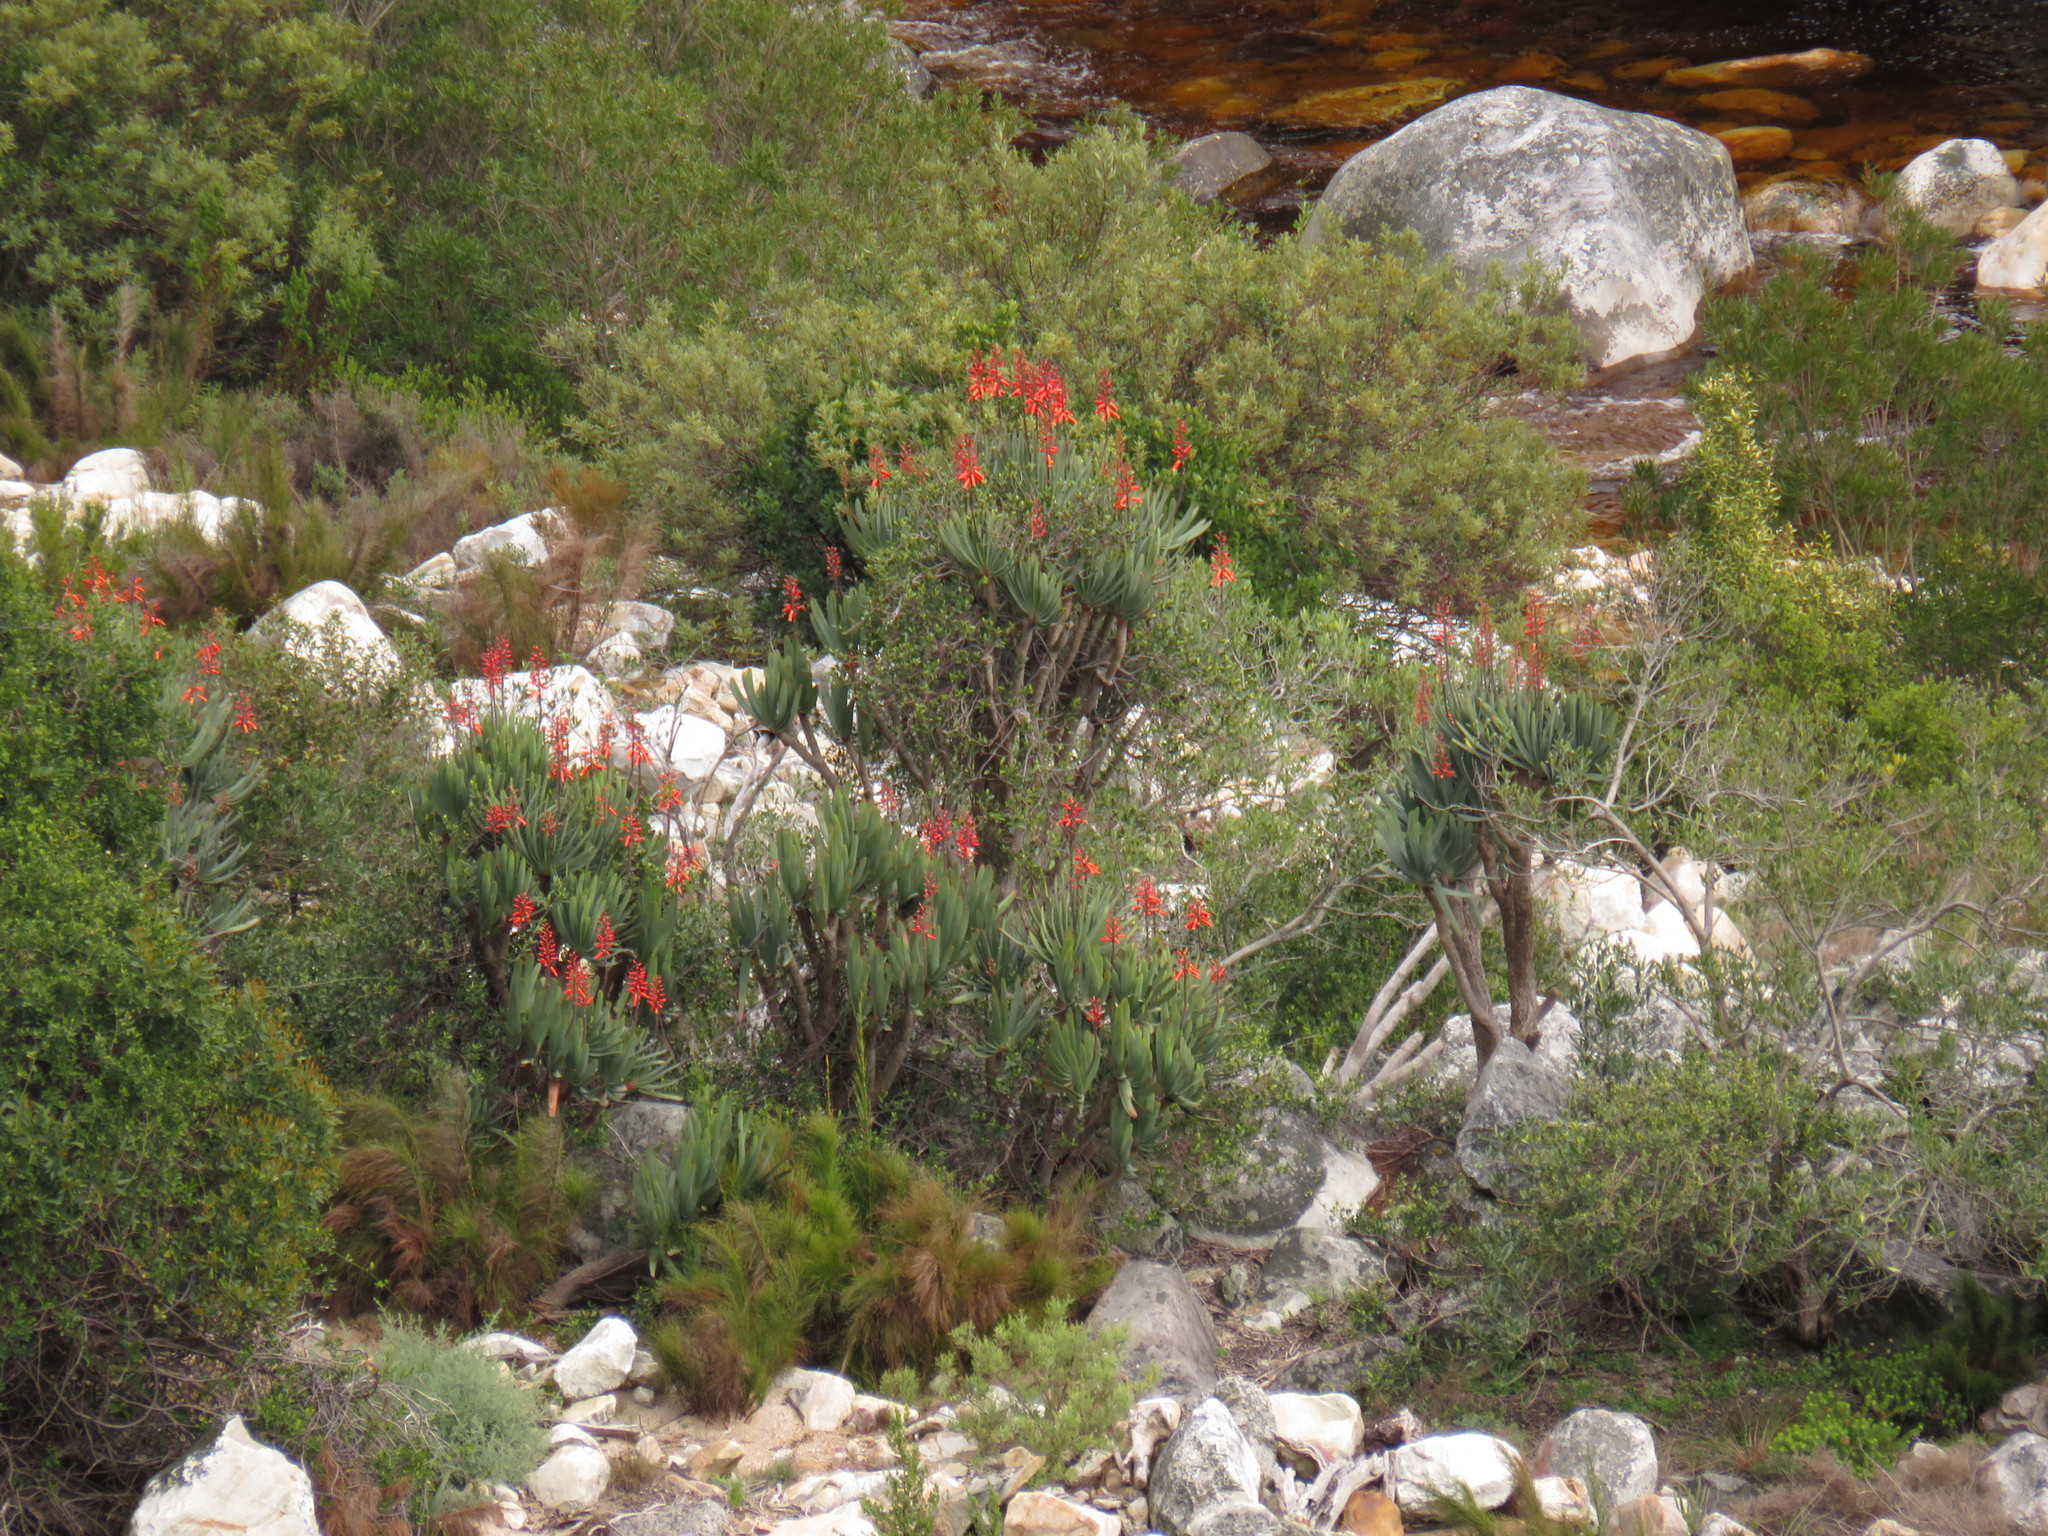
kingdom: Plantae
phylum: Tracheophyta
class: Liliopsida
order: Asparagales
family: Asphodelaceae
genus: Kumara
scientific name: Kumara plicatilis
